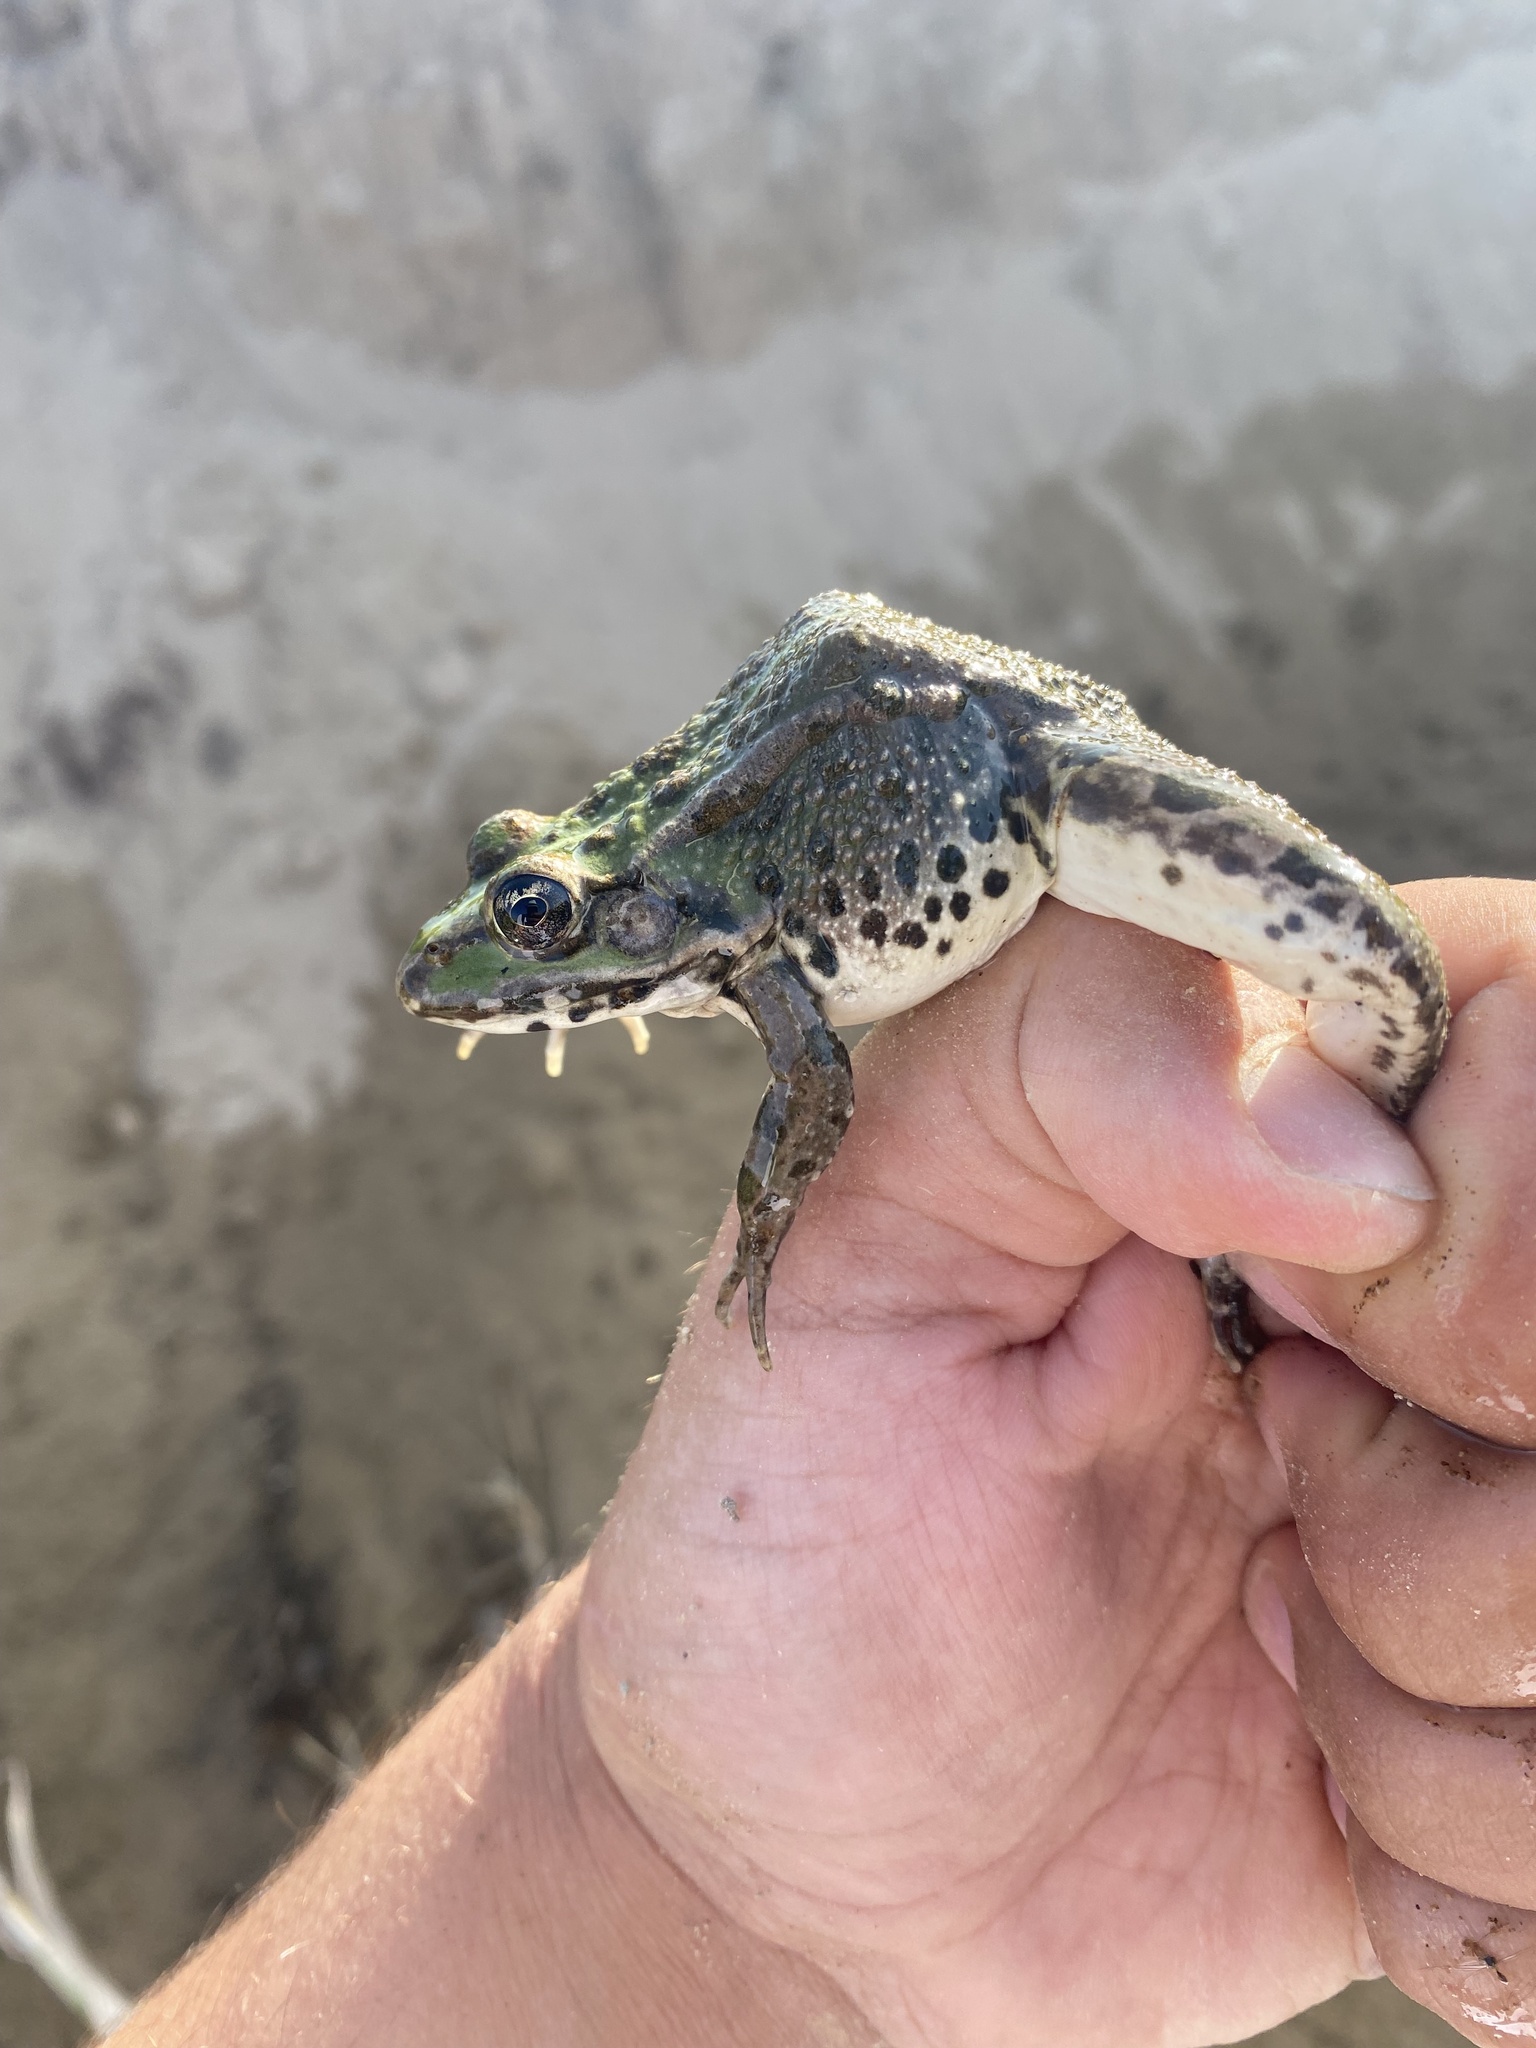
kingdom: Animalia
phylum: Chordata
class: Amphibia
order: Anura
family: Ranidae
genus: Pelophylax
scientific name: Pelophylax ridibundus
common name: Marsh frog
